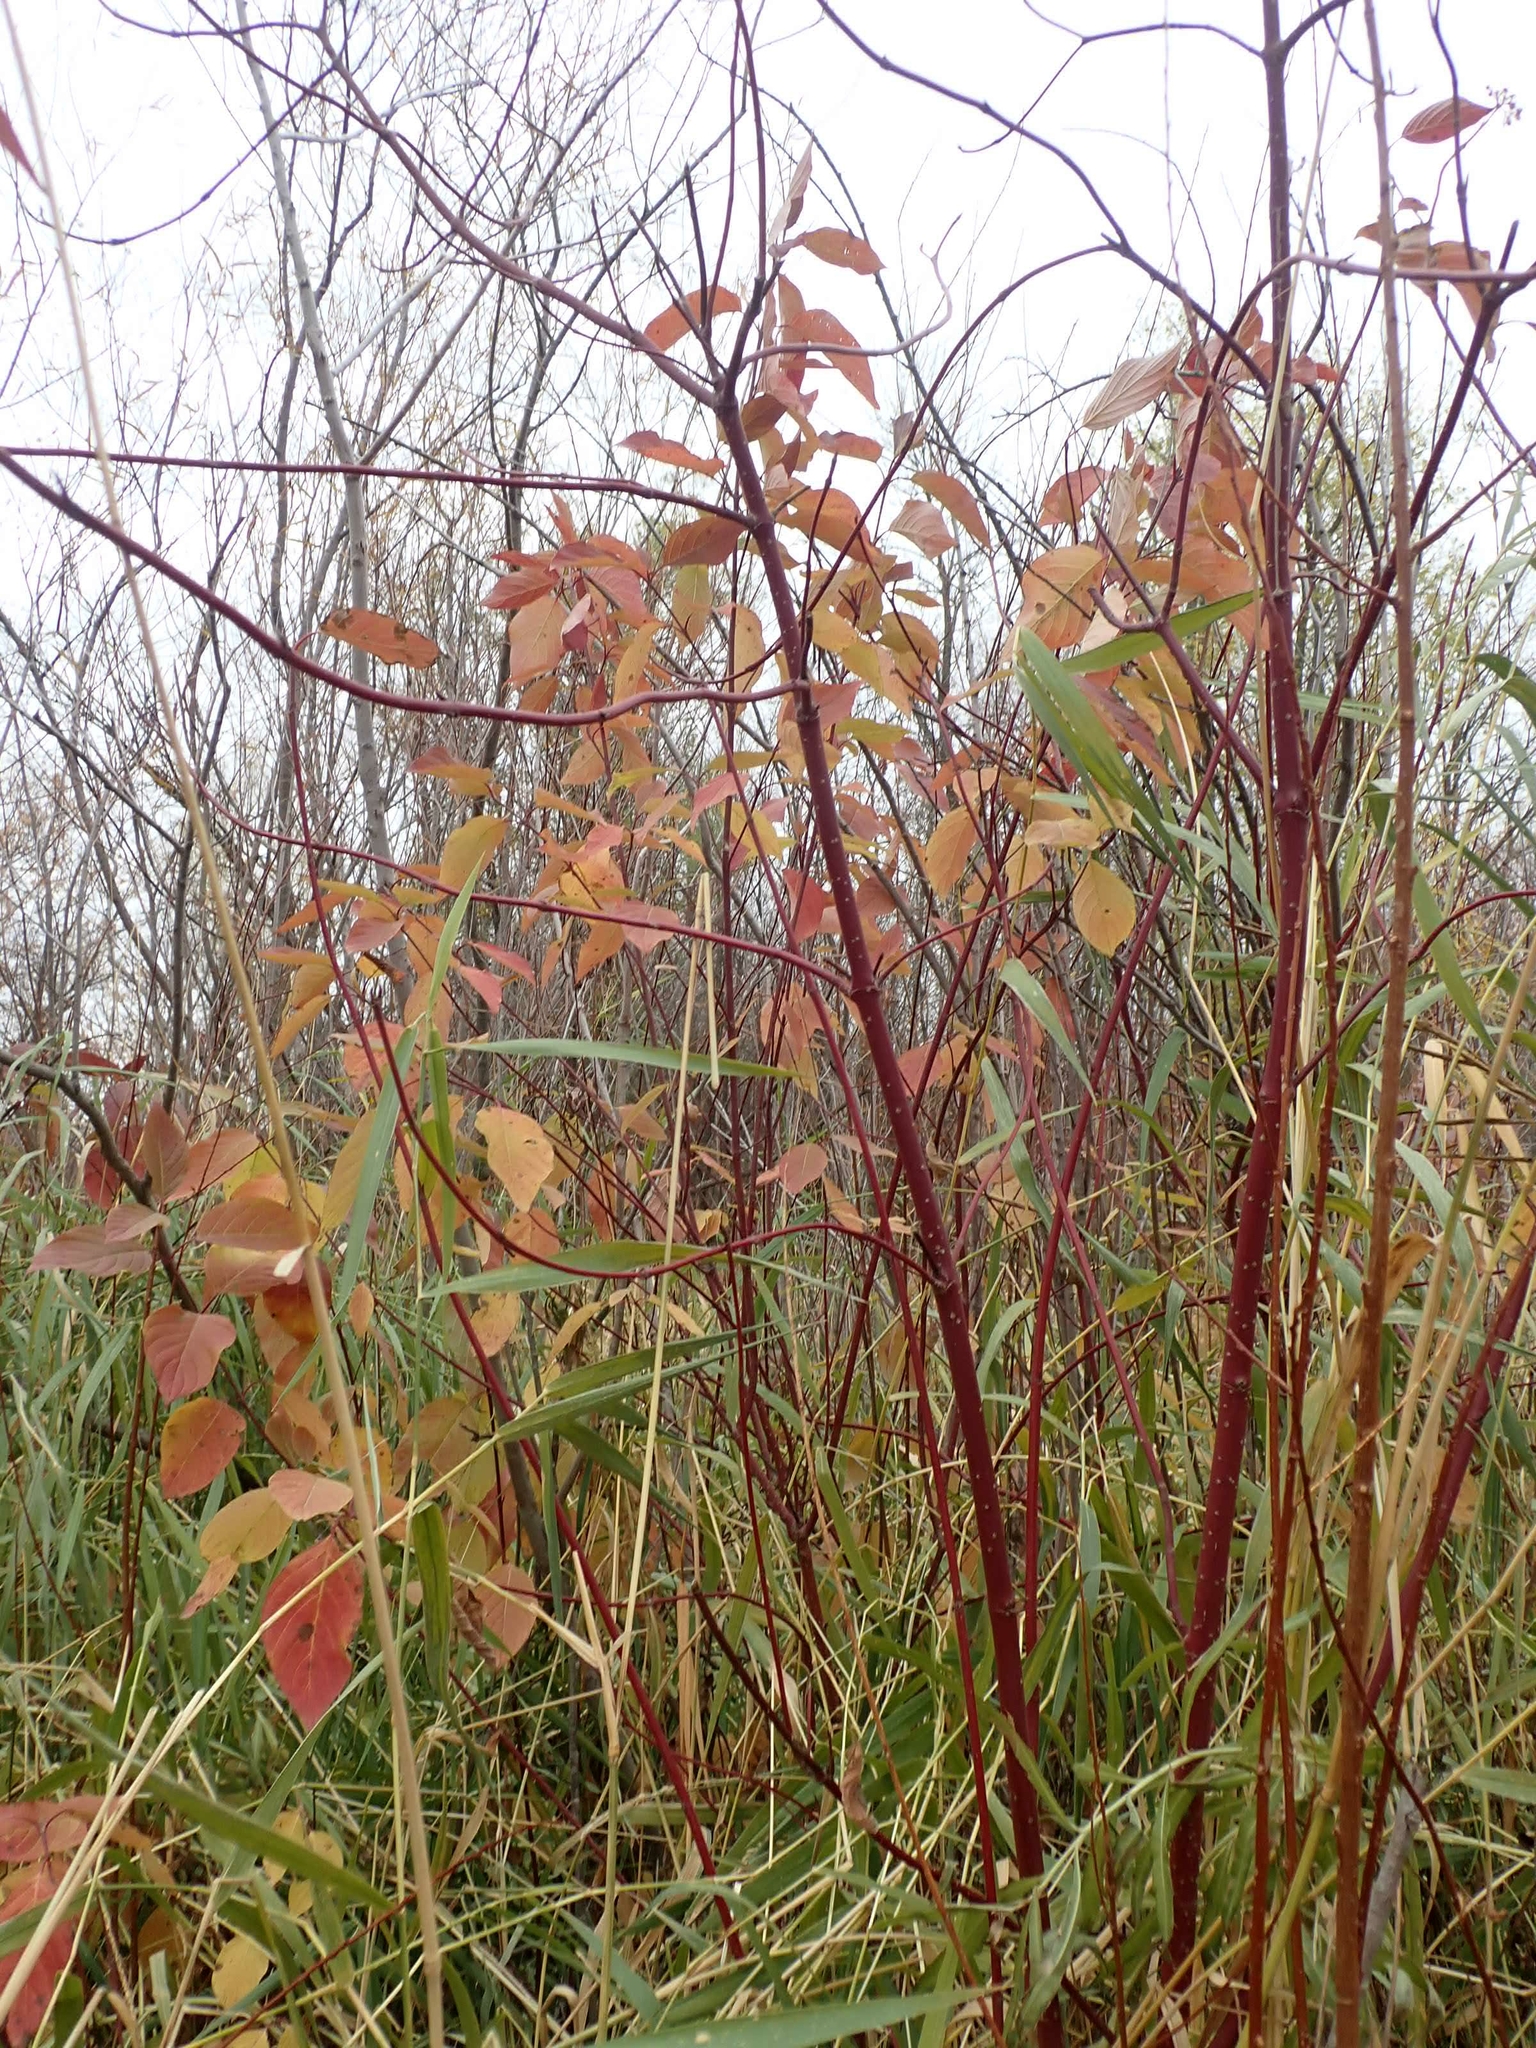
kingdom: Plantae
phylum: Tracheophyta
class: Magnoliopsida
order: Cornales
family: Cornaceae
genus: Cornus
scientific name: Cornus sericea
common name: Red-osier dogwood
